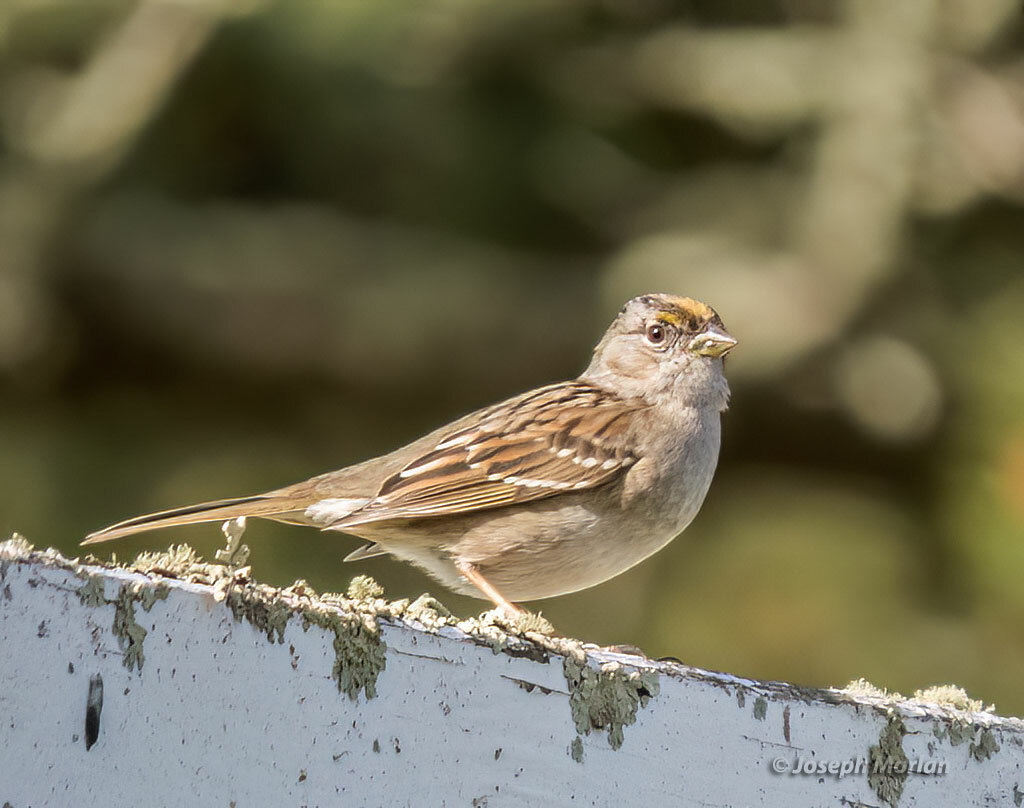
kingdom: Animalia
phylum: Chordata
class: Aves
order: Passeriformes
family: Passerellidae
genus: Zonotrichia
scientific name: Zonotrichia atricapilla
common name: Golden-crowned sparrow
